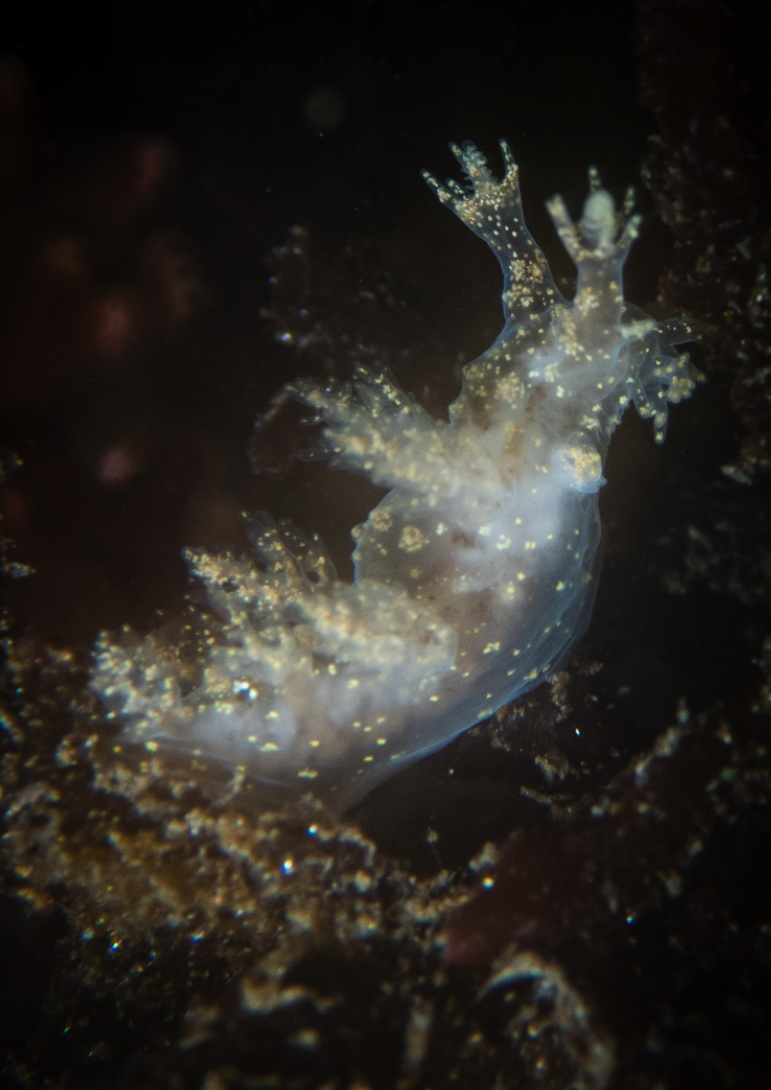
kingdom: Animalia
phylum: Mollusca
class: Gastropoda
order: Nudibranchia
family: Dendronotidae
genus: Dendronotus
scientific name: Dendronotus venustus
